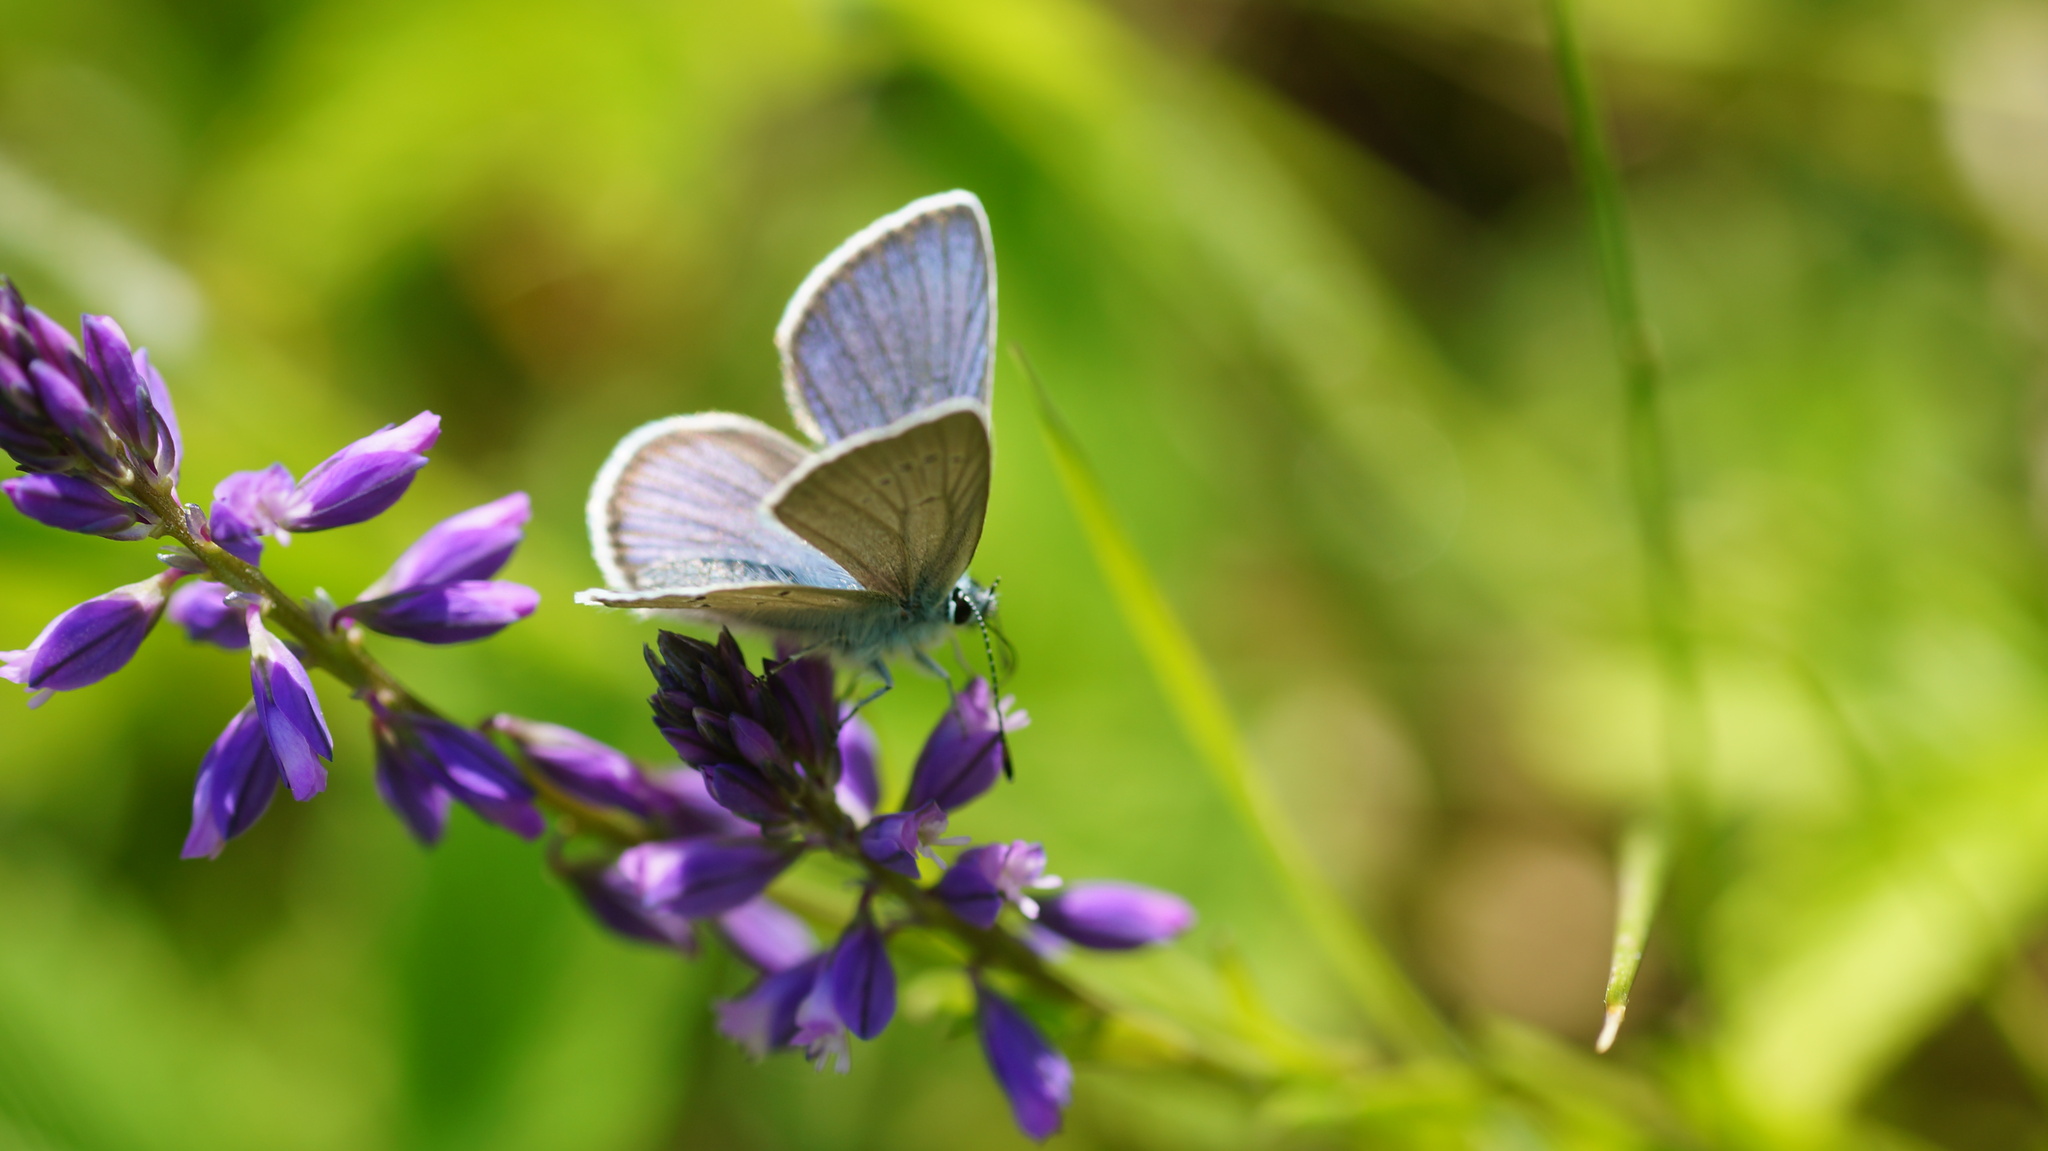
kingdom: Animalia
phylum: Arthropoda
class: Insecta
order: Lepidoptera
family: Lycaenidae
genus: Cyaniris
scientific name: Cyaniris semiargus
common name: Mazarine blue
